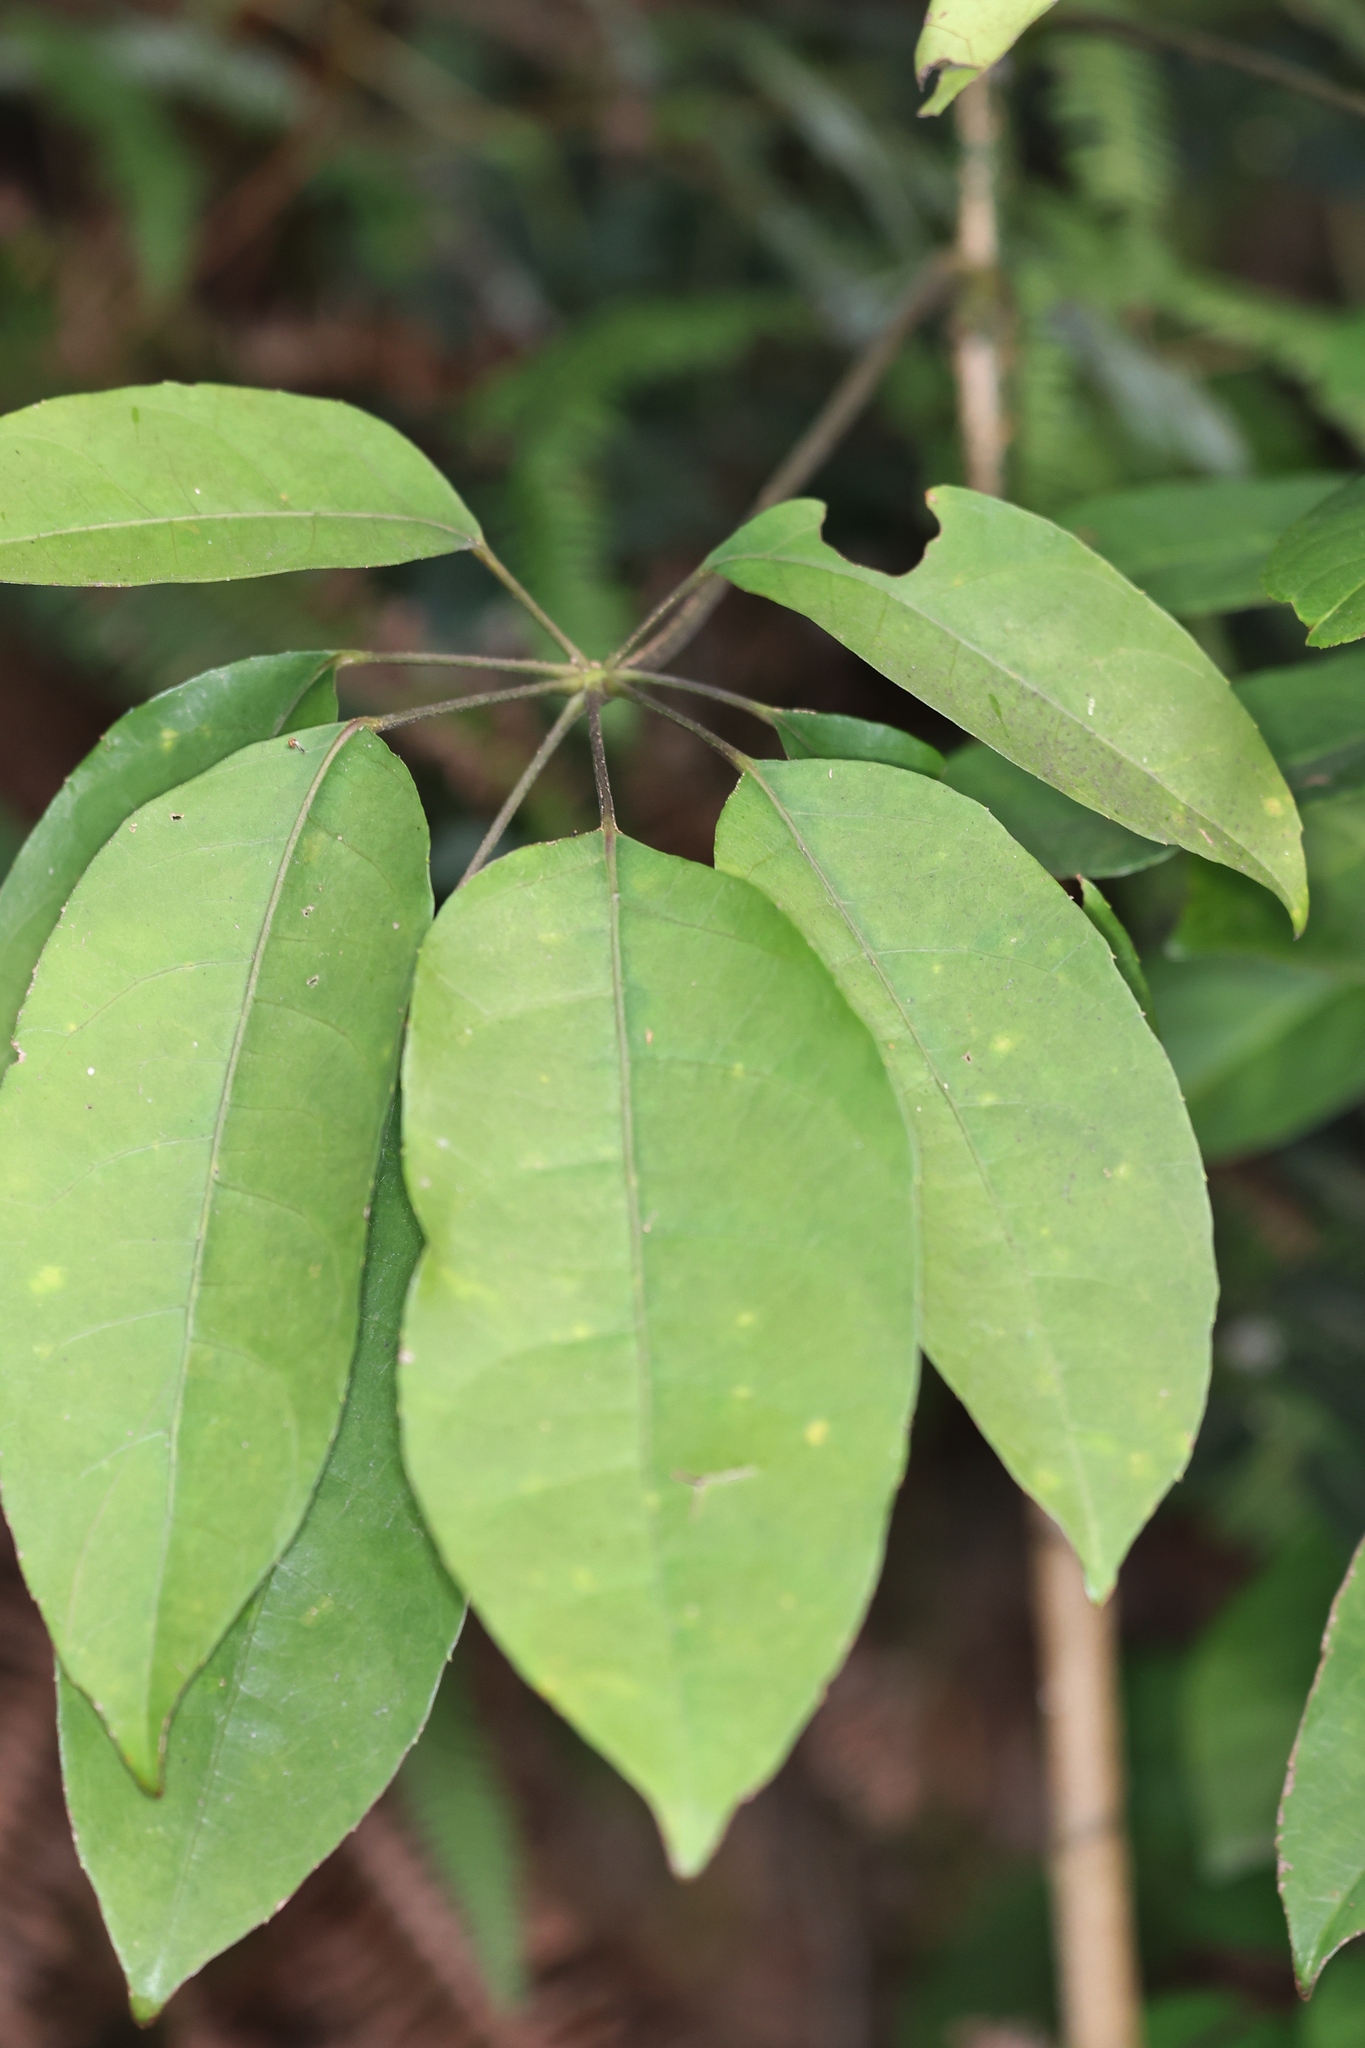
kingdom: Plantae
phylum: Tracheophyta
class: Magnoliopsida
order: Apiales
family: Araliaceae
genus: Heptapleurum
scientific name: Heptapleurum heptaphyllum
